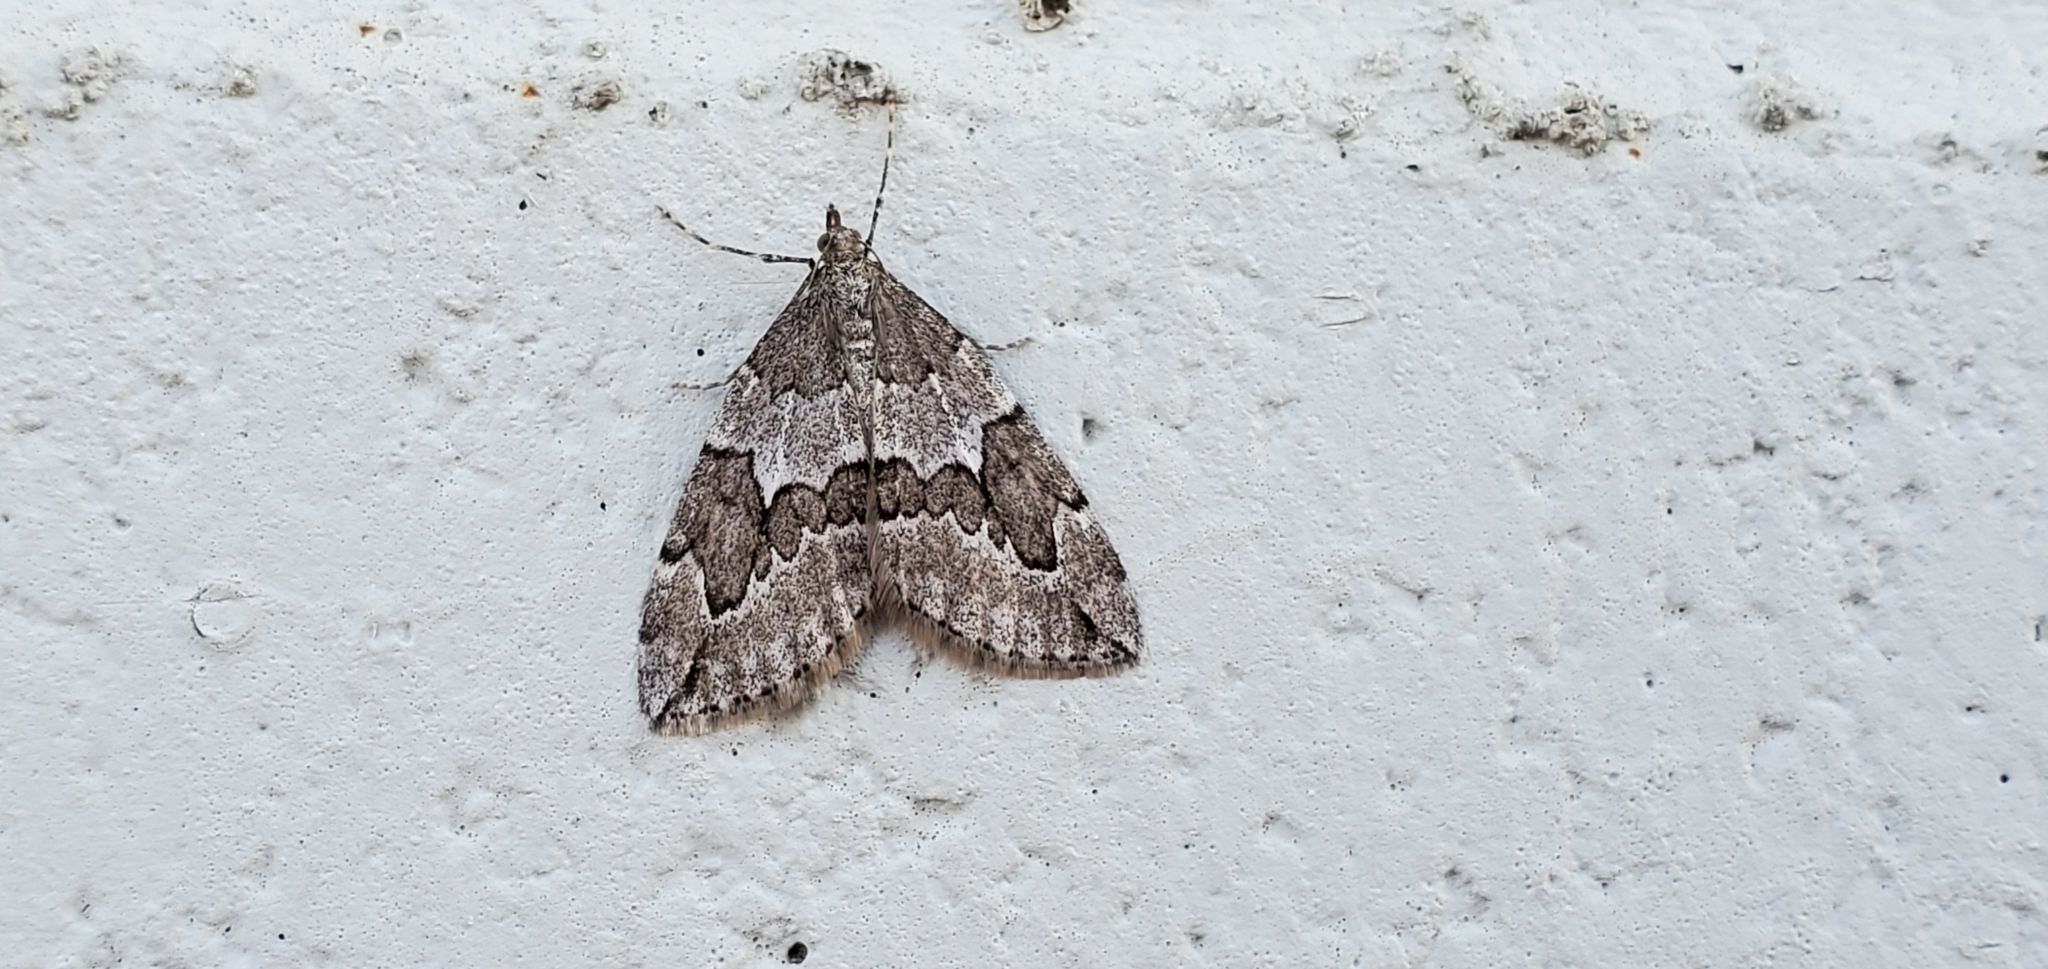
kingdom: Animalia
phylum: Arthropoda
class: Insecta
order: Lepidoptera
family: Geometridae
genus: Thera
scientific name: Thera juniperata
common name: Juniper carpet
